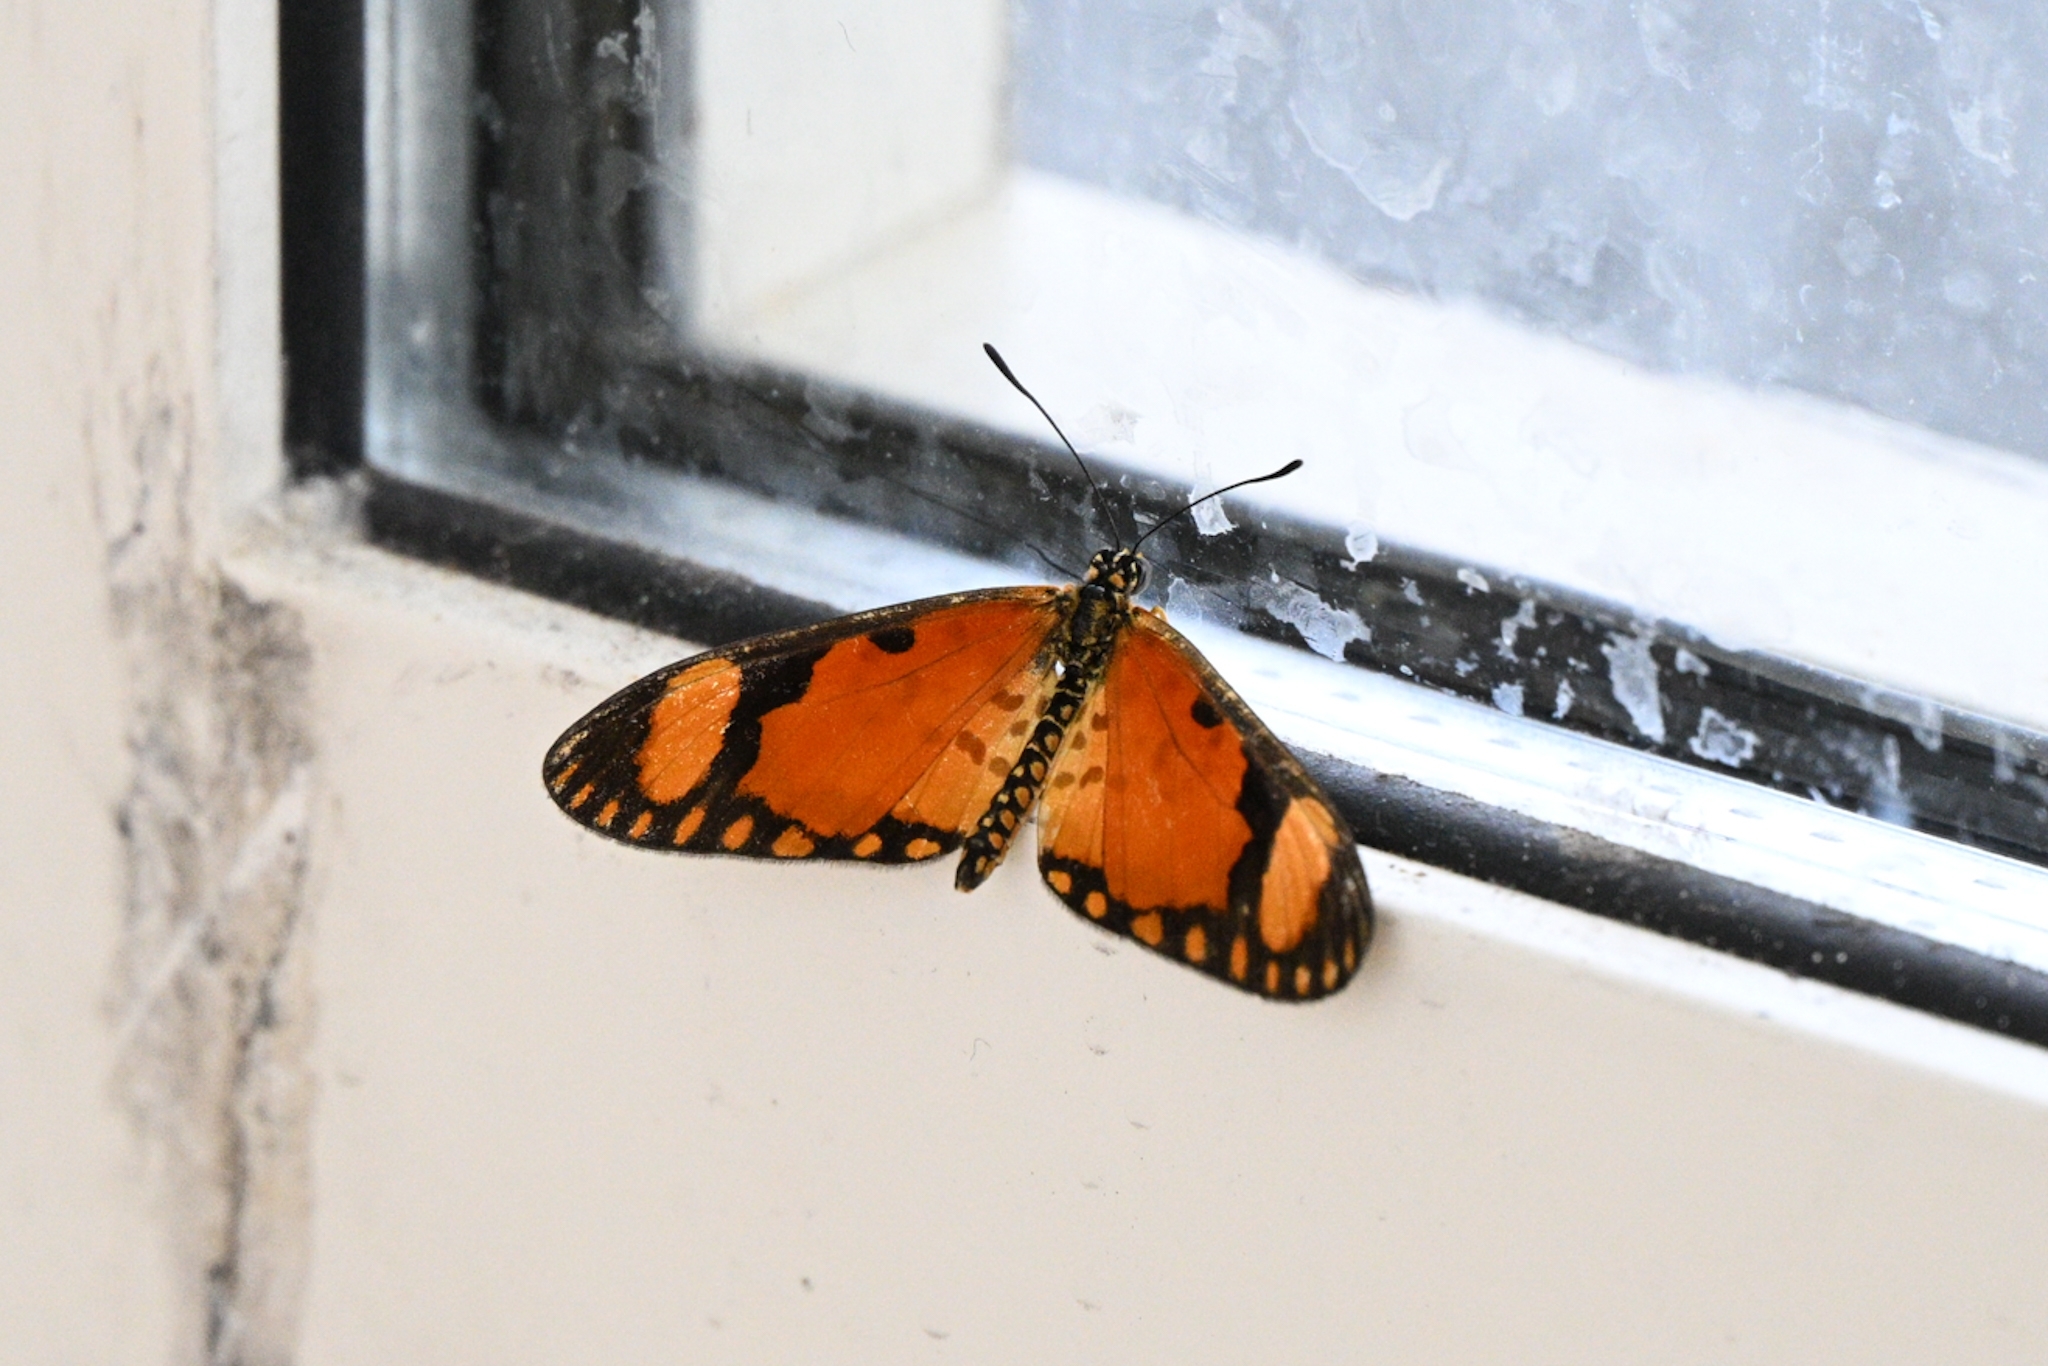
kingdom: Animalia
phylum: Arthropoda
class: Insecta
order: Lepidoptera
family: Nymphalidae
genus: Acraea
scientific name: Acraea Telchinia serena
